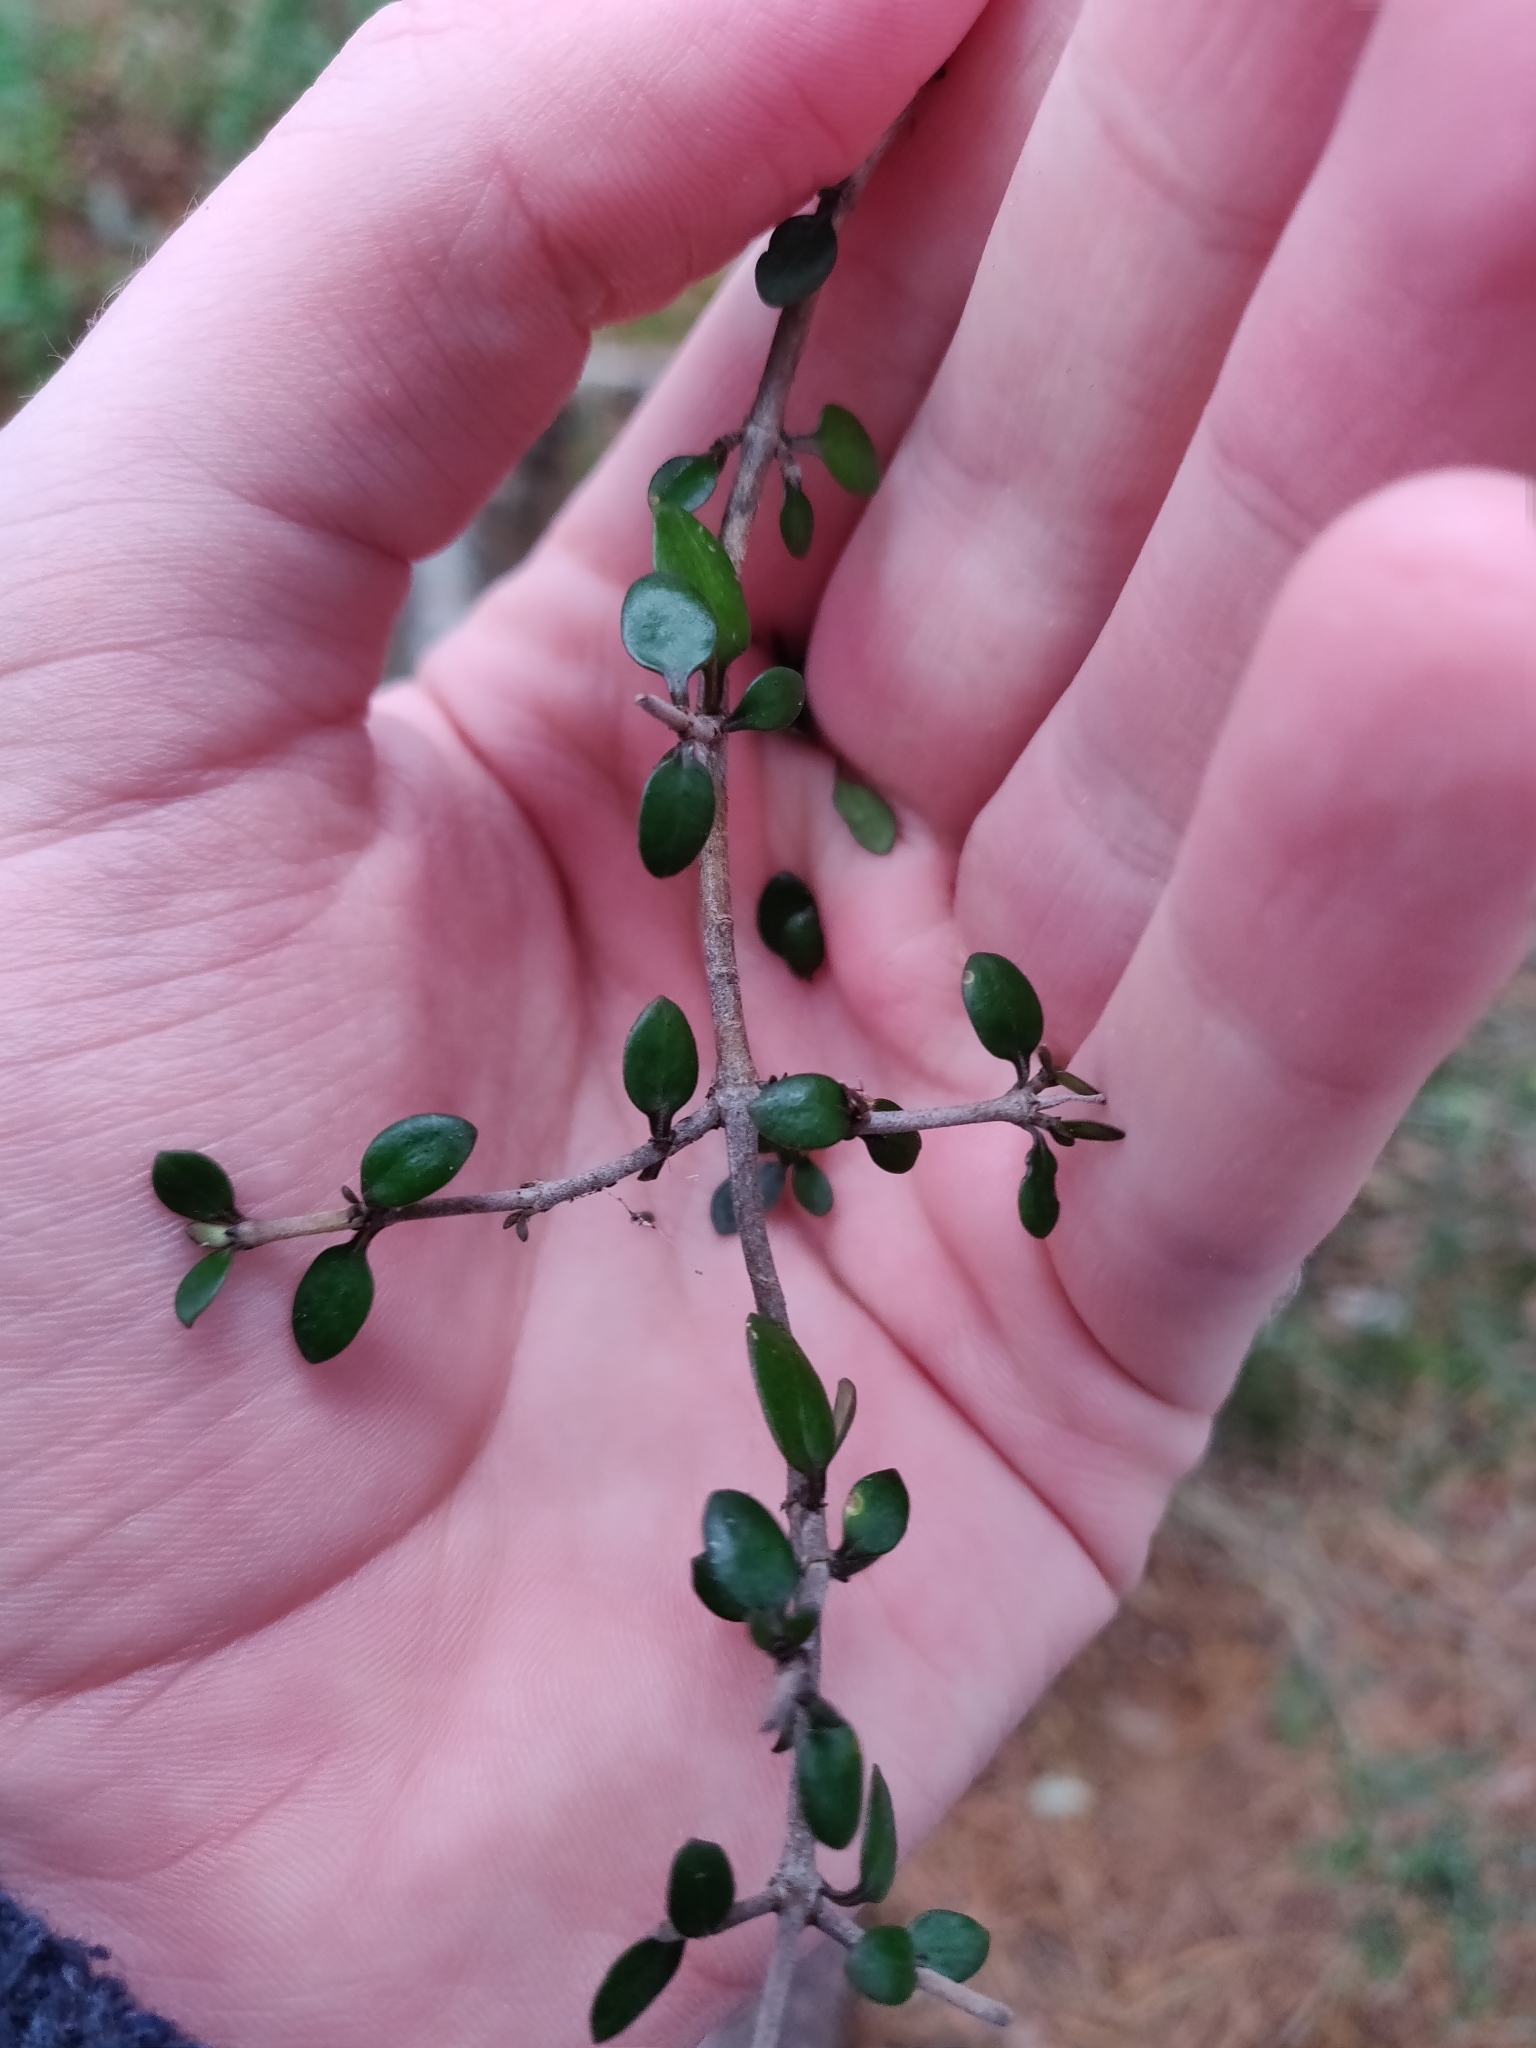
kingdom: Plantae
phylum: Tracheophyta
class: Magnoliopsida
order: Gentianales
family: Rubiaceae
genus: Coprosma
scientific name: Coprosma propinqua
